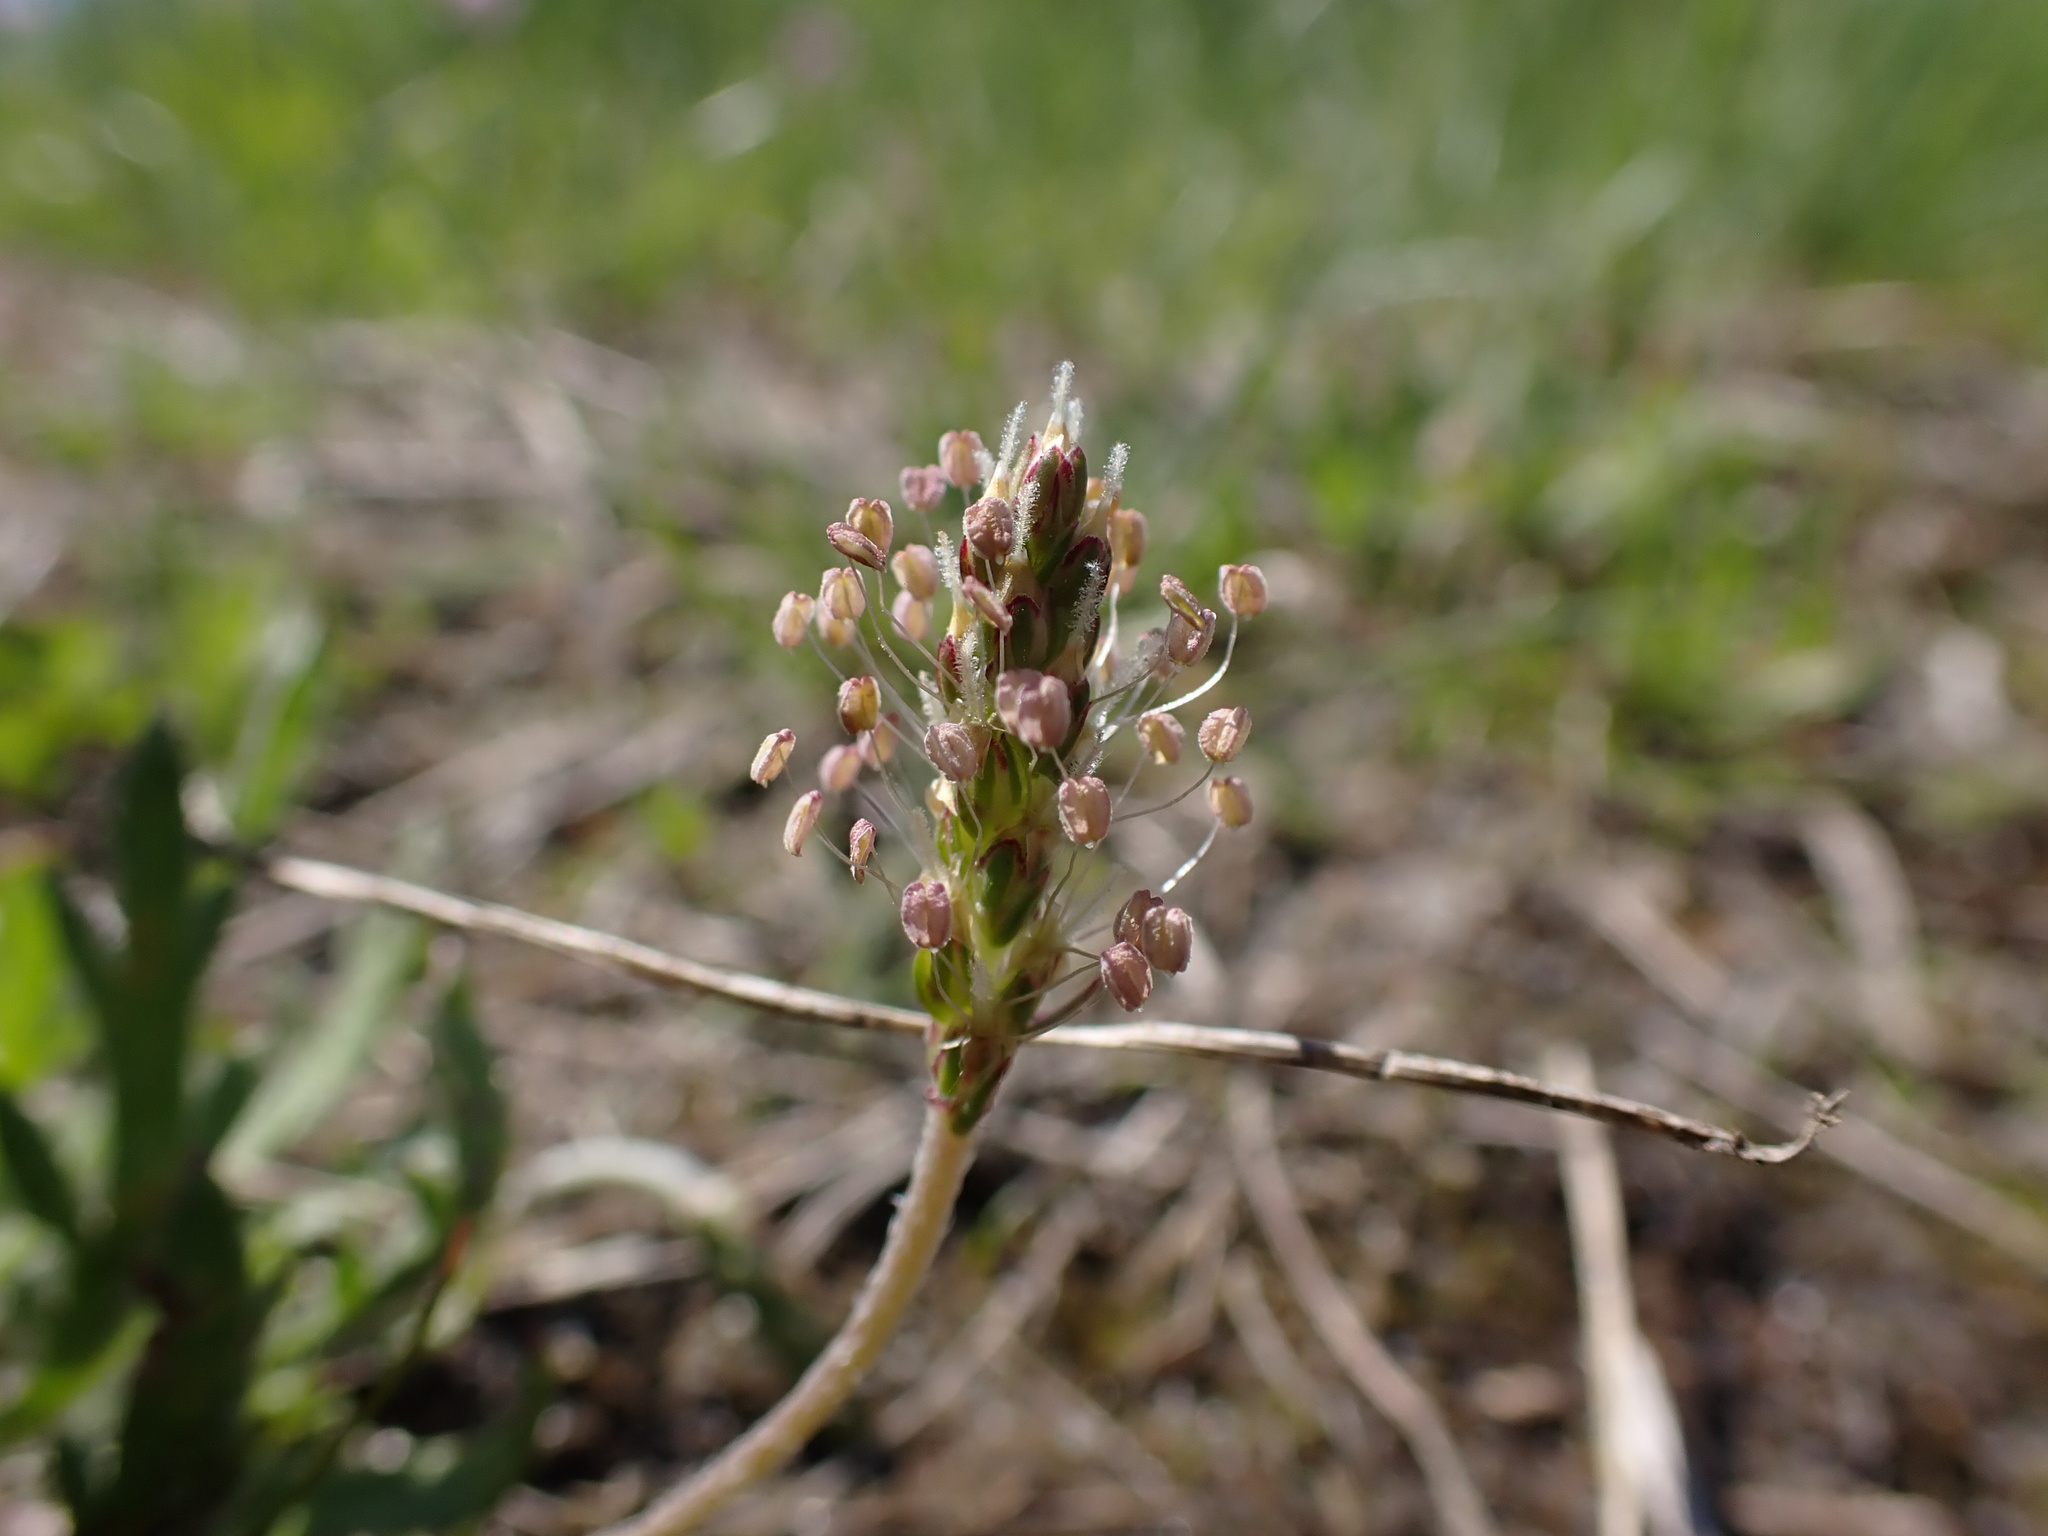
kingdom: Plantae
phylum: Tracheophyta
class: Magnoliopsida
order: Lamiales
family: Plantaginaceae
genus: Plantago
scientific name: Plantago coronopus
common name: Buck's-horn plantain
